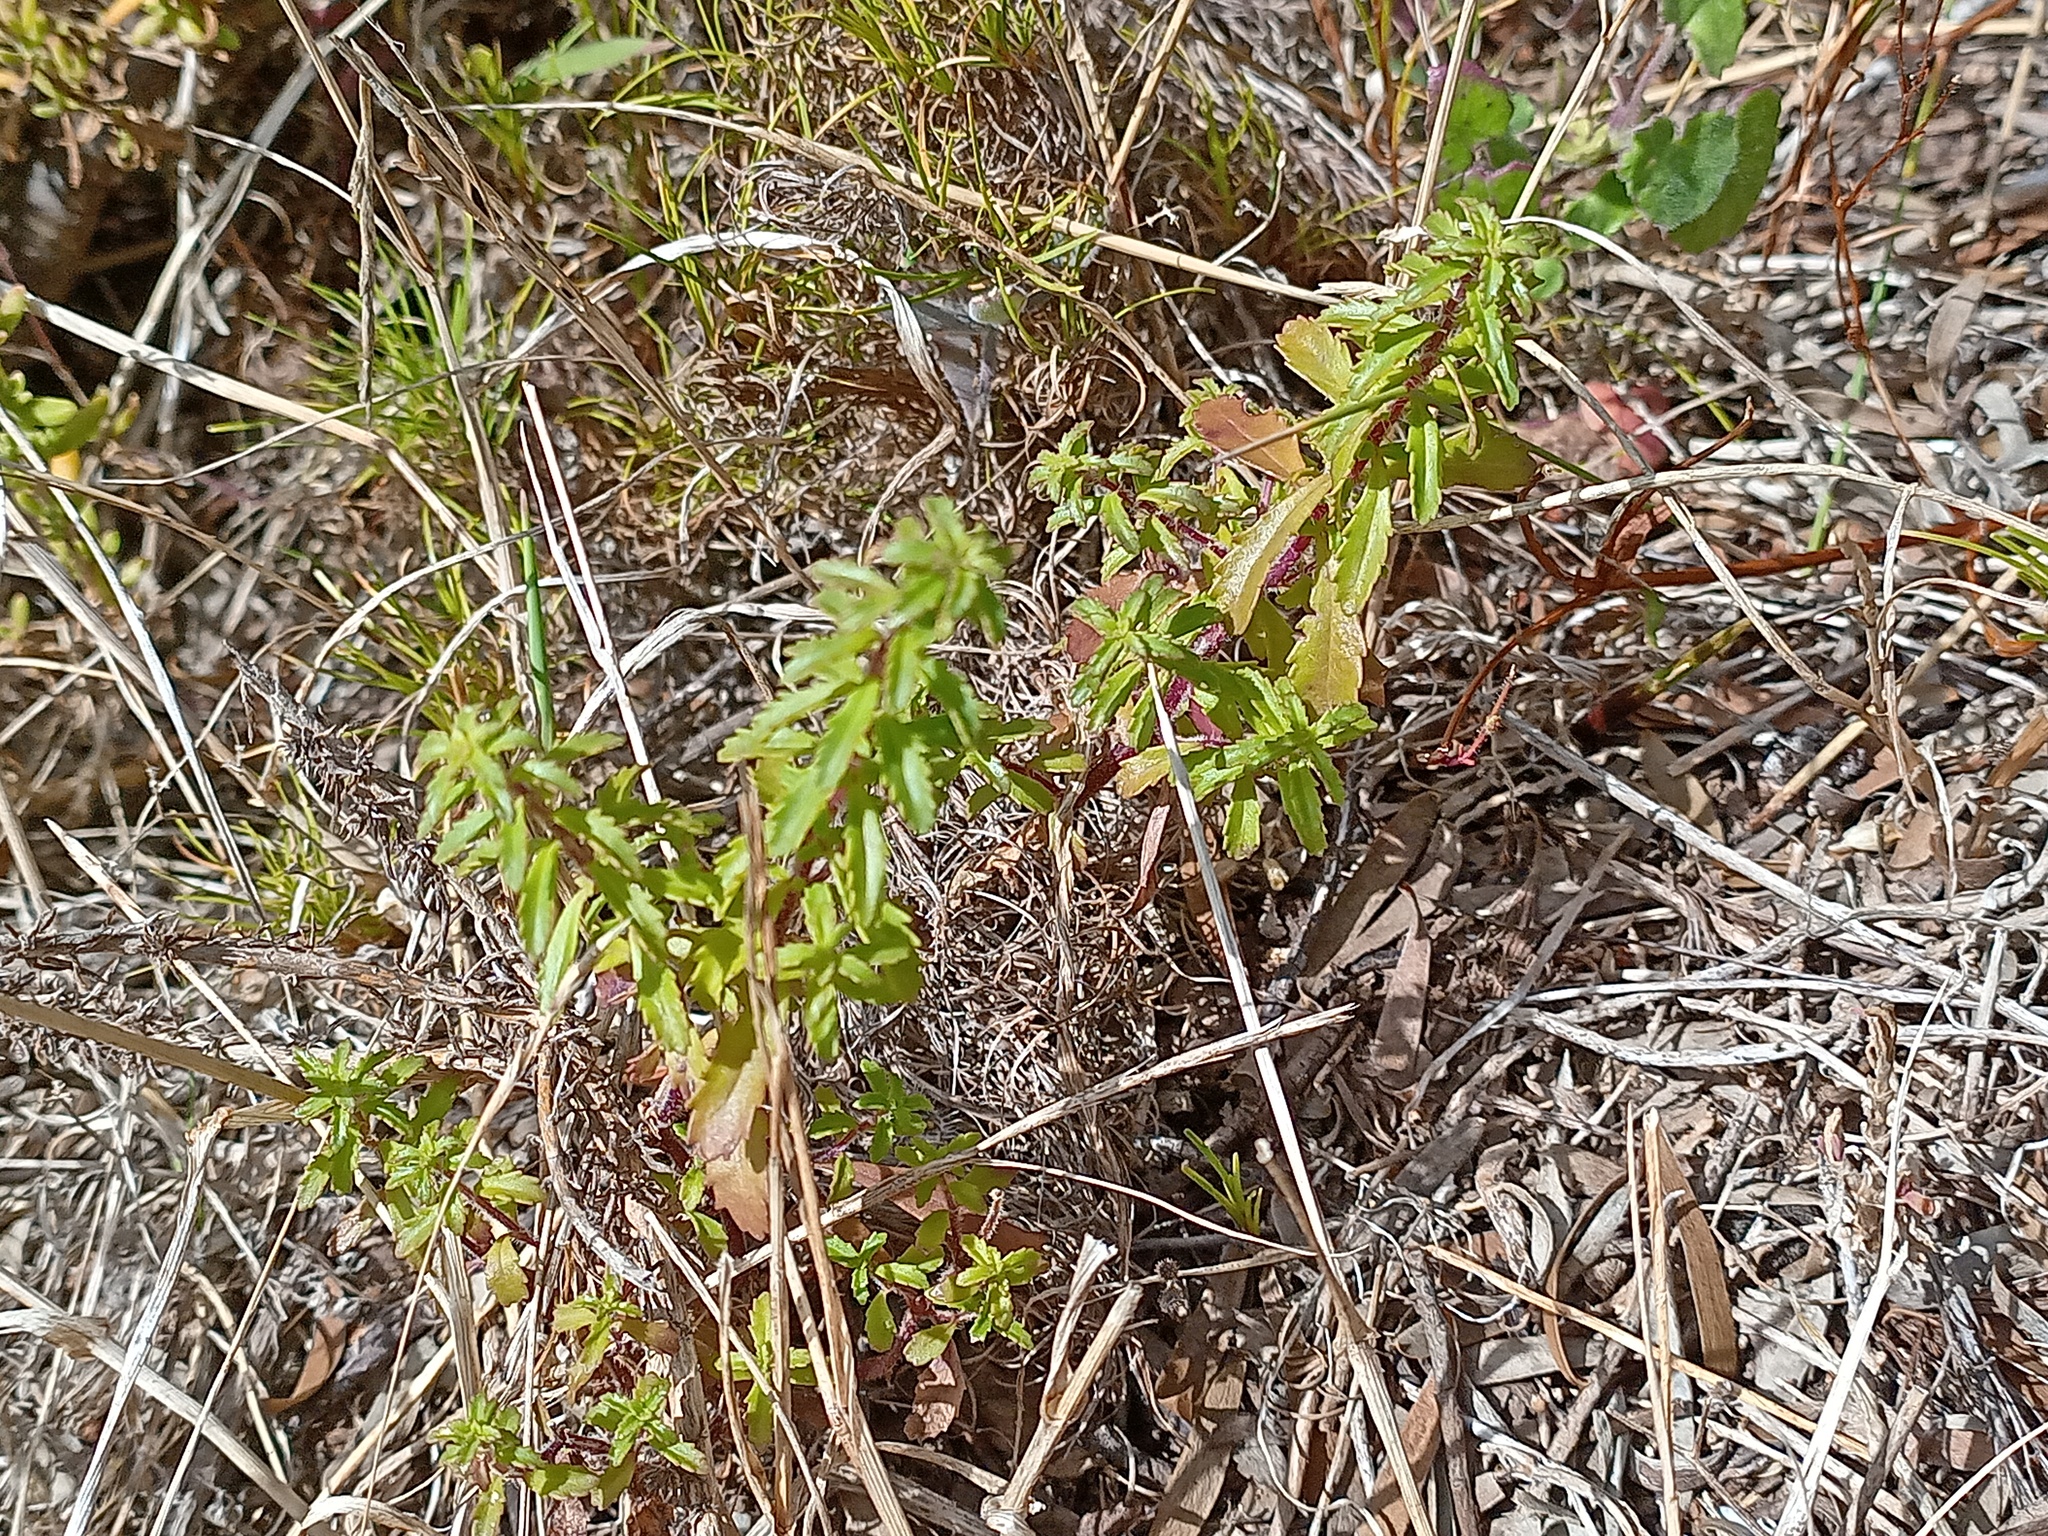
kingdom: Plantae
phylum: Tracheophyta
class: Magnoliopsida
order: Lamiales
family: Scrophulariaceae
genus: Dischisma
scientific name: Dischisma ciliatum
